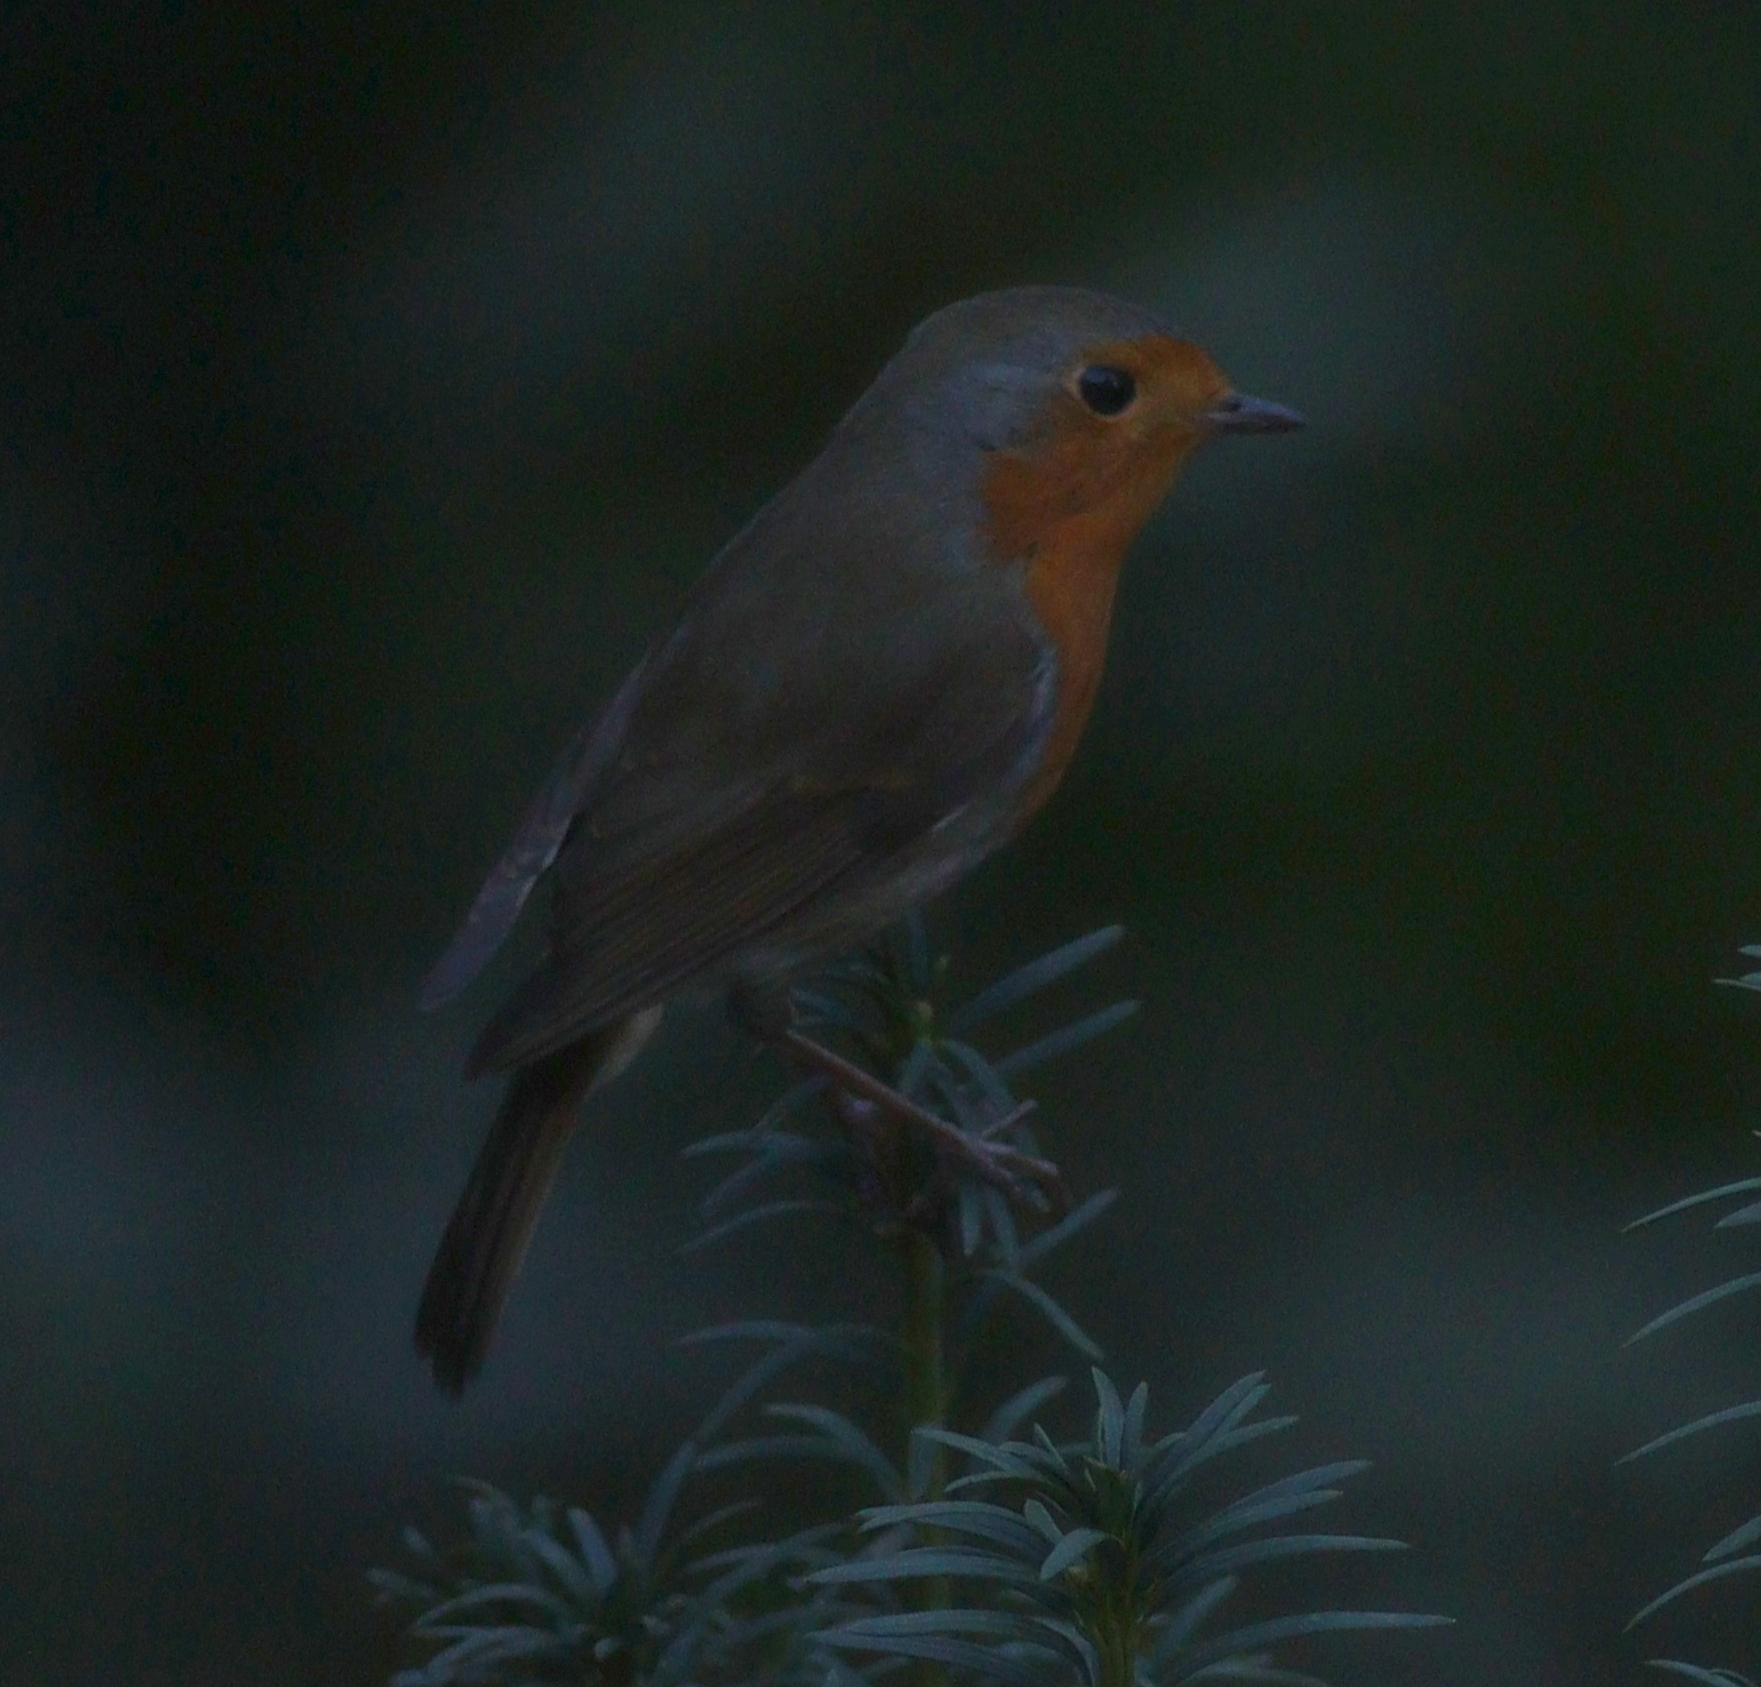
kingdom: Animalia
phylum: Chordata
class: Aves
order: Passeriformes
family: Muscicapidae
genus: Erithacus
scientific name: Erithacus rubecula
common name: European robin
